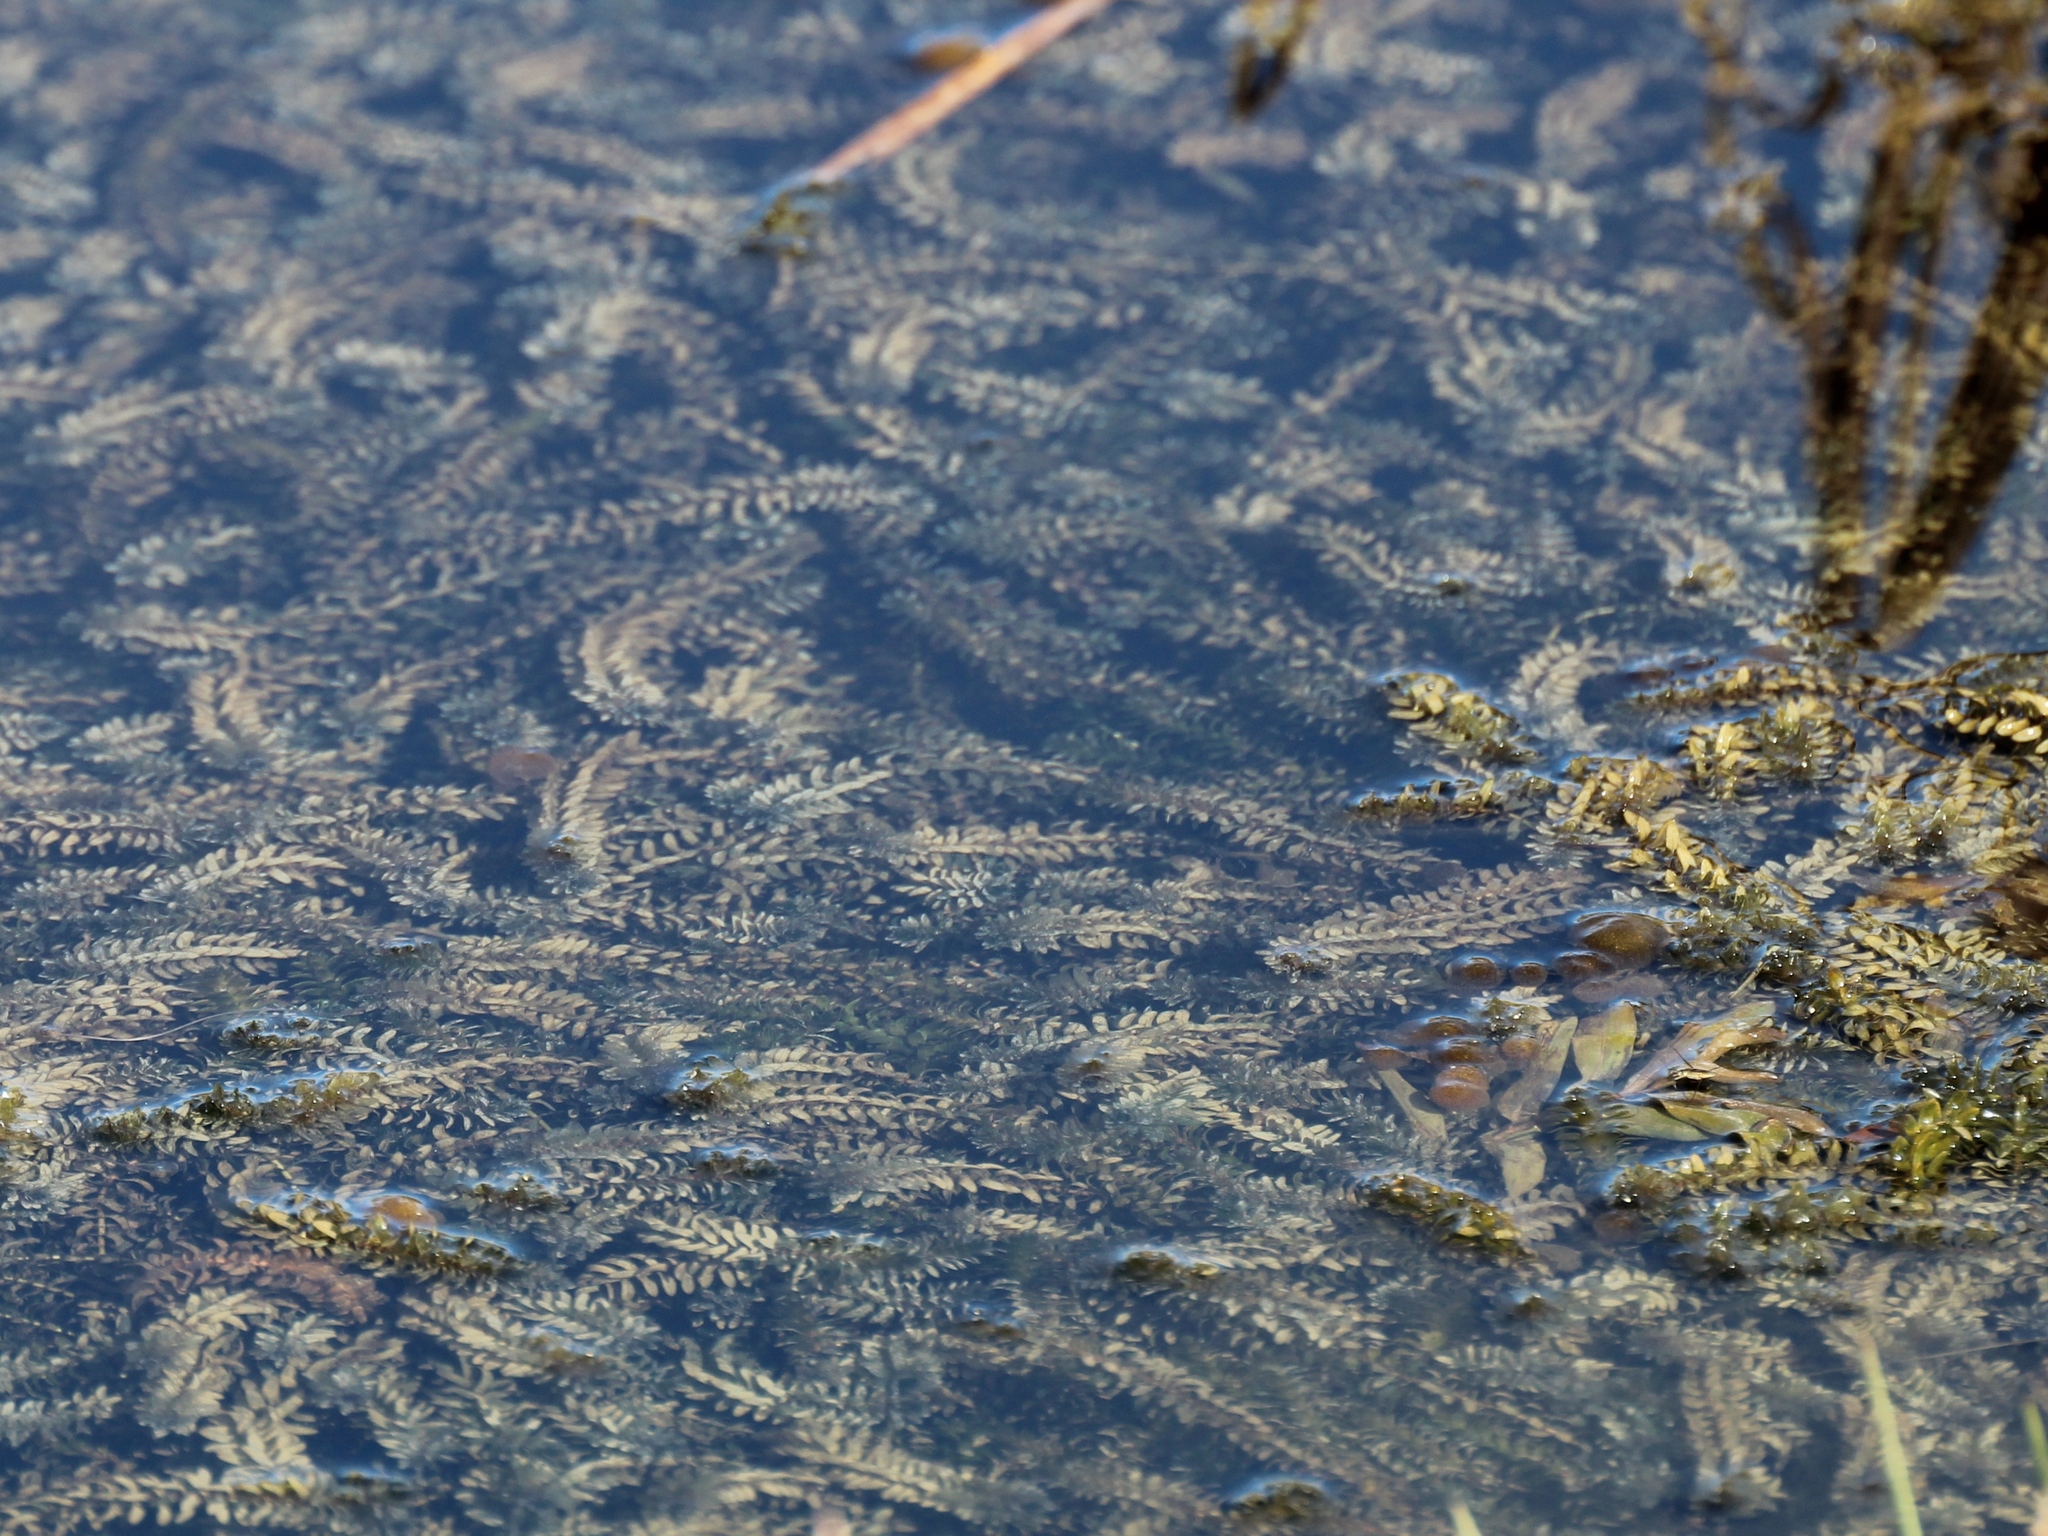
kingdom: Plantae
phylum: Tracheophyta
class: Liliopsida
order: Alismatales
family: Hydrocharitaceae
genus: Elodea
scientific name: Elodea canadensis
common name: Canadian waterweed
